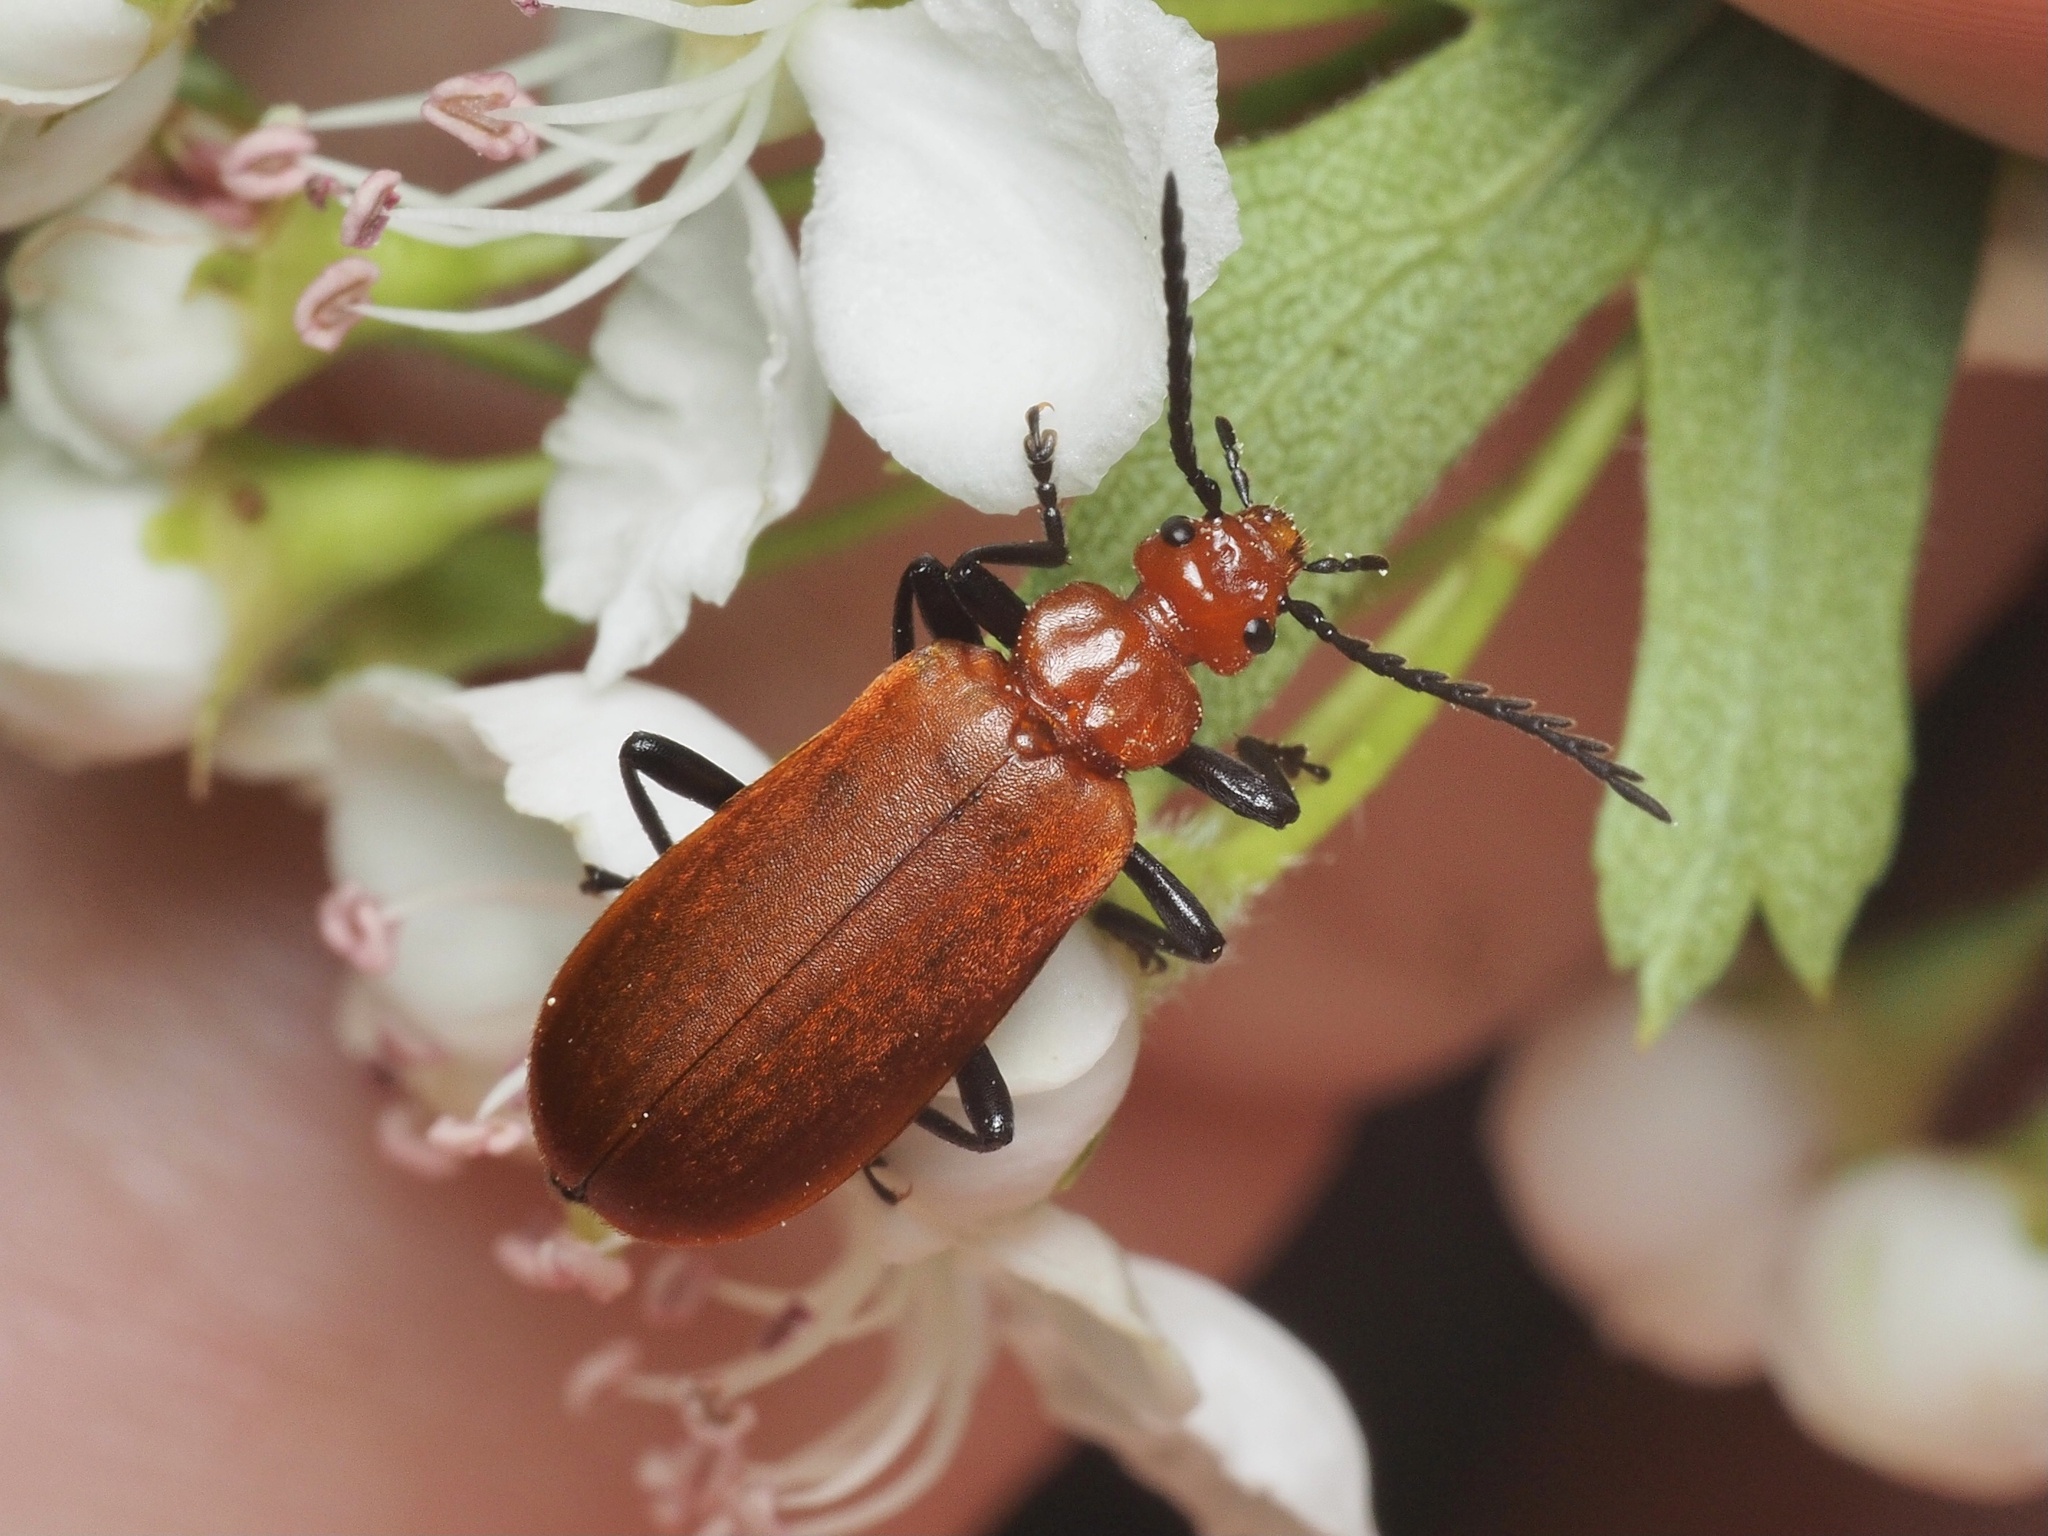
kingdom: Animalia
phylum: Arthropoda
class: Insecta
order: Coleoptera
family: Pyrochroidae
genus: Pyrochroa
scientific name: Pyrochroa serraticornis
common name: Red-headed cardinal beetle
